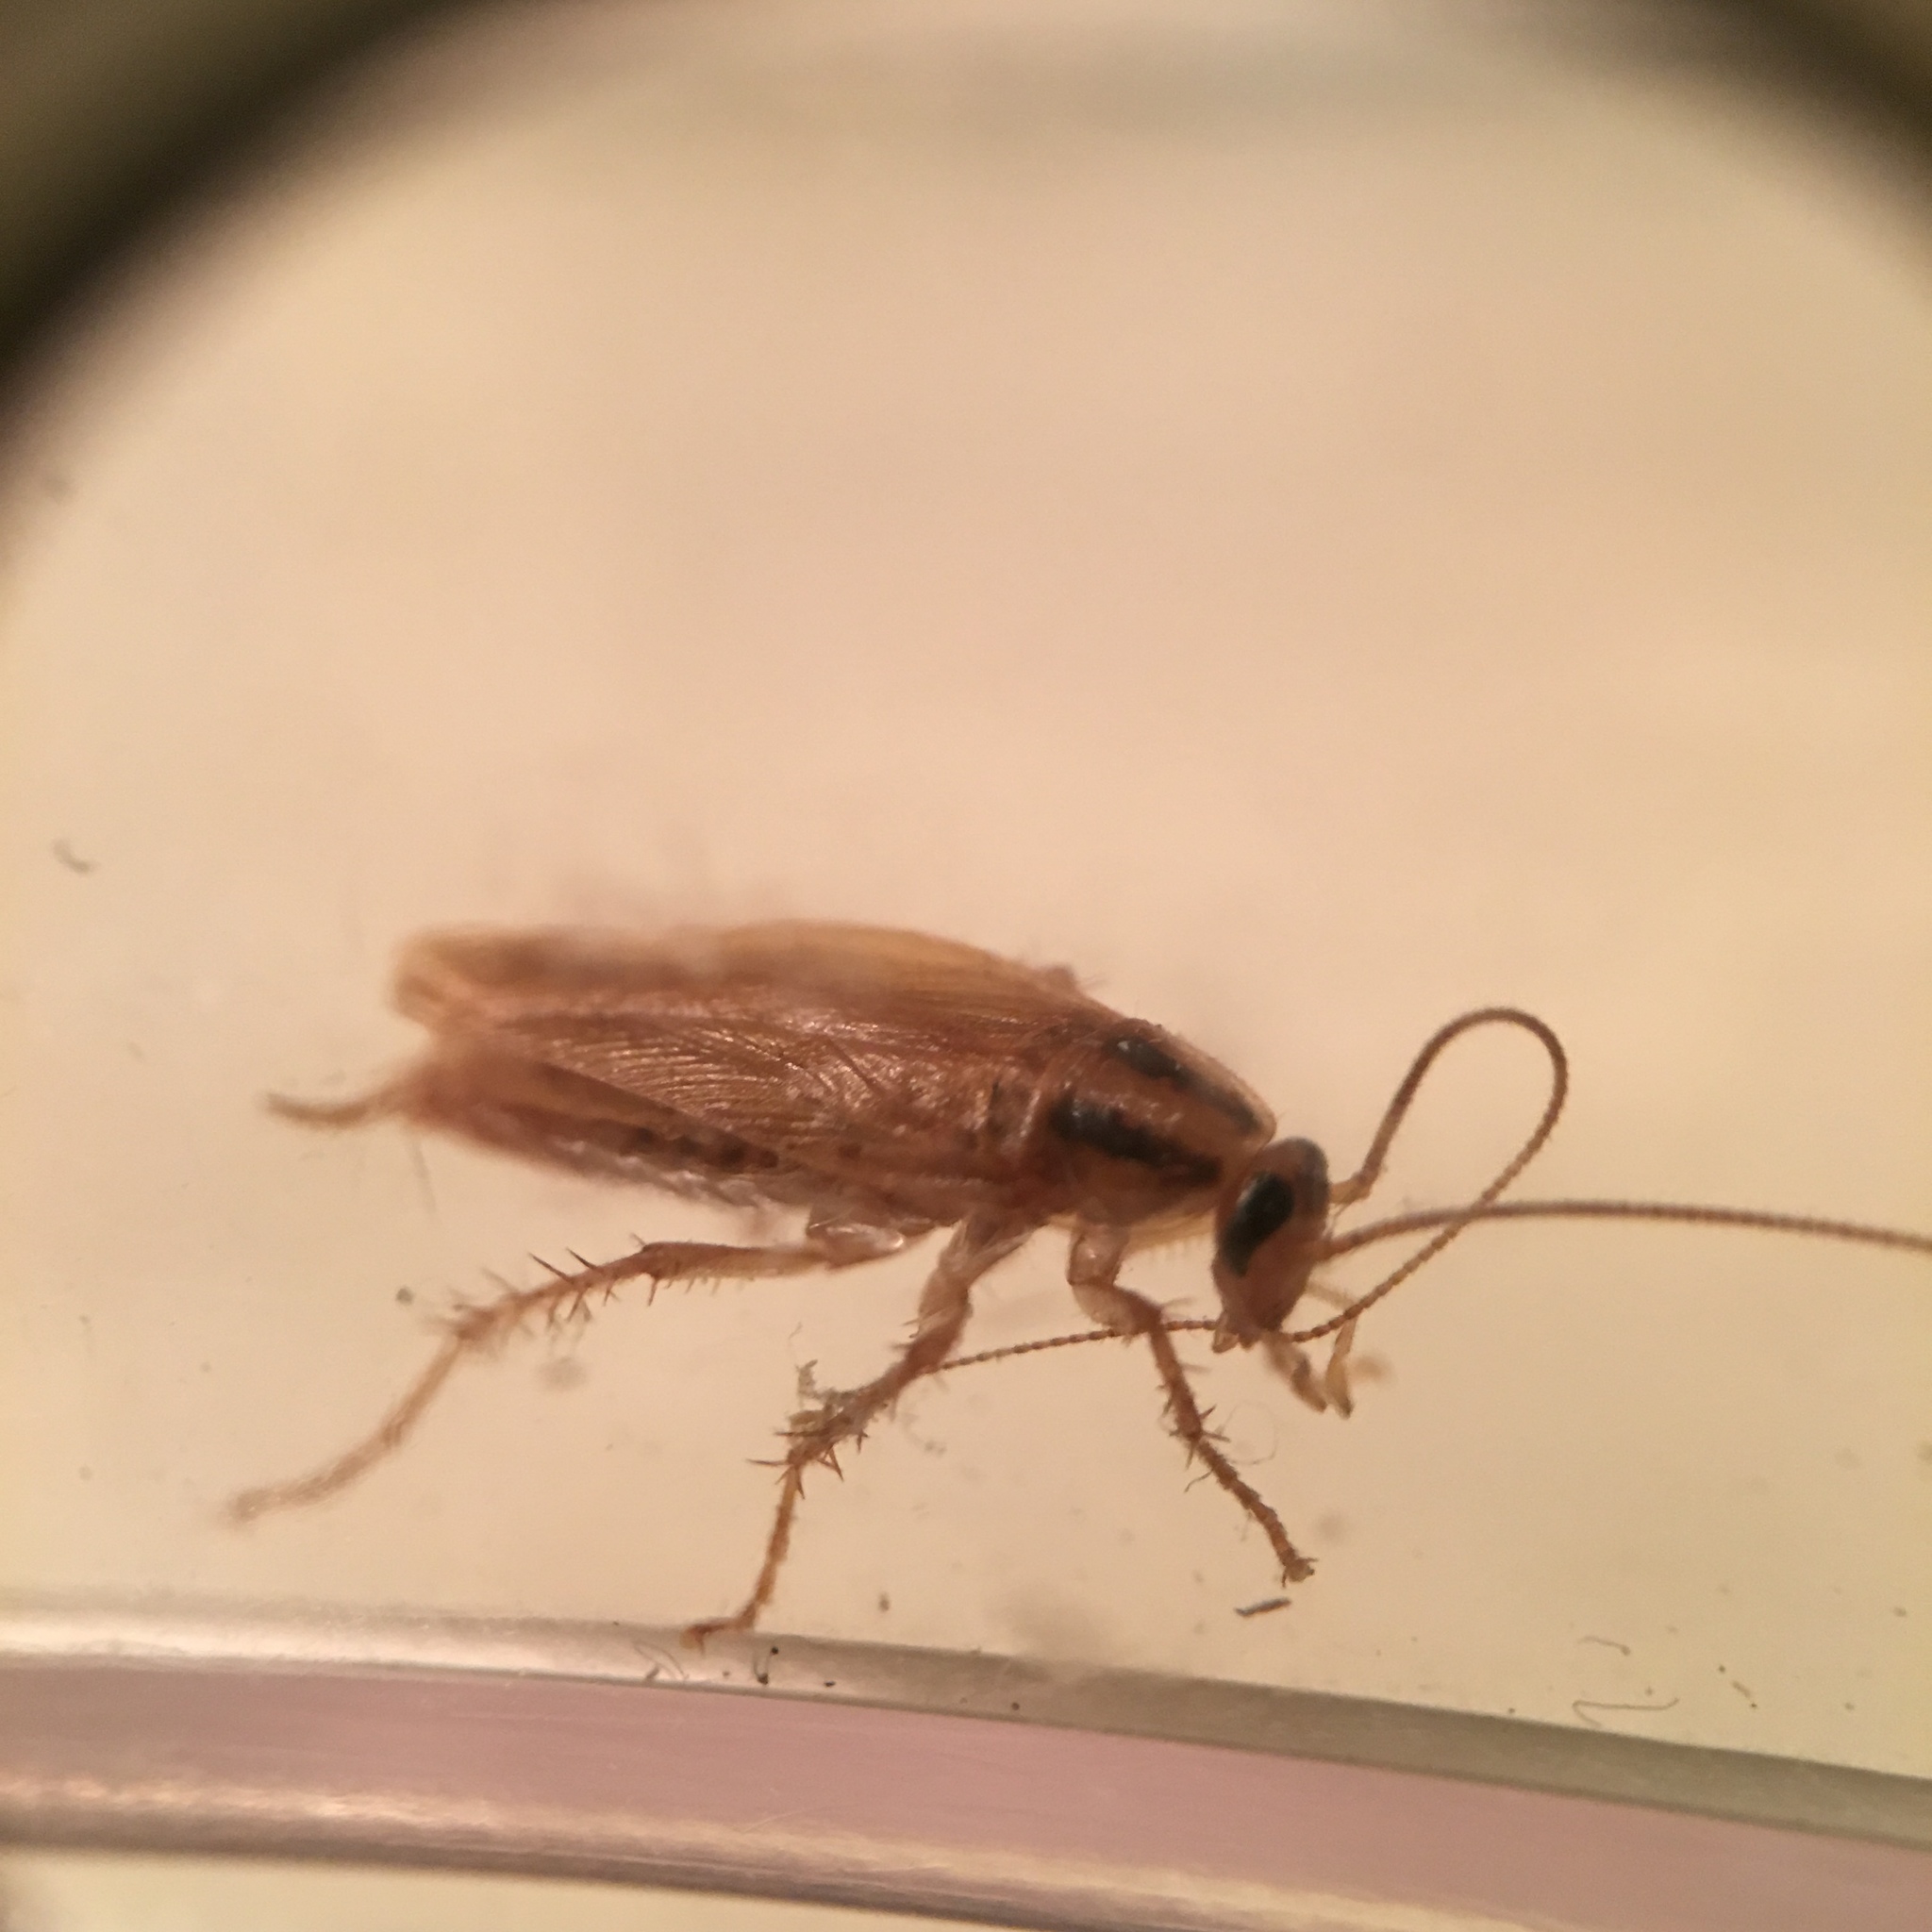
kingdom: Animalia
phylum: Arthropoda
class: Insecta
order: Blattodea
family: Ectobiidae
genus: Blattella
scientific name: Blattella germanica
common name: German cockroach
